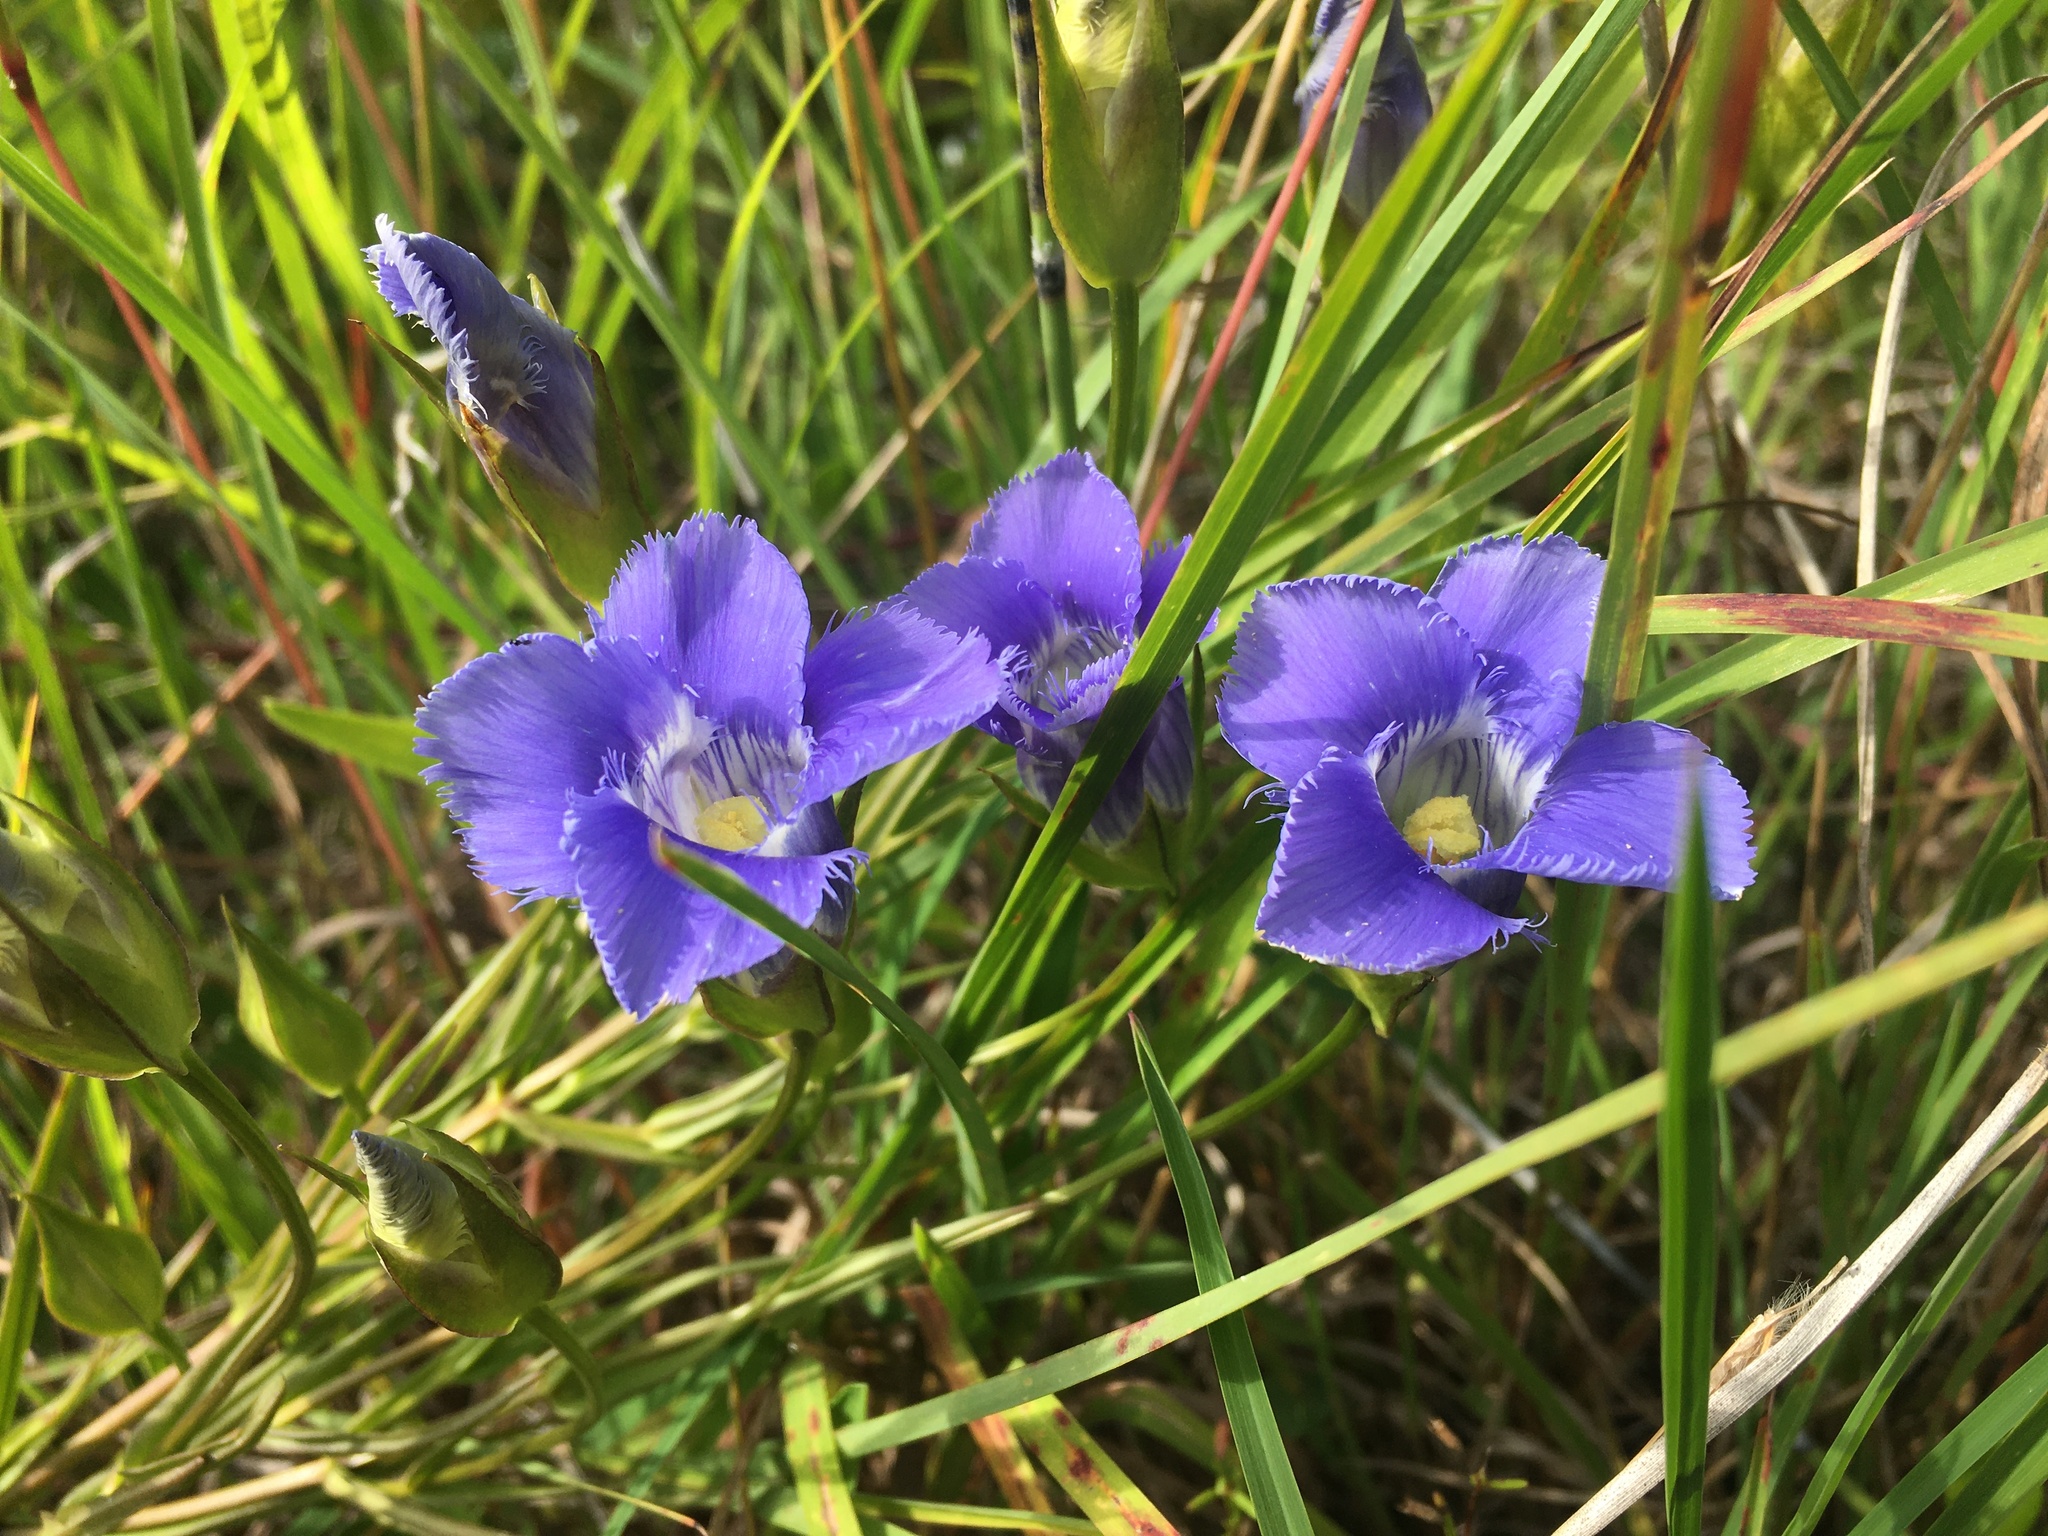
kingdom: Plantae
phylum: Tracheophyta
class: Magnoliopsida
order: Gentianales
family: Gentianaceae
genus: Gentianopsis
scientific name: Gentianopsis virgata
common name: Lesser fringed-gentian
